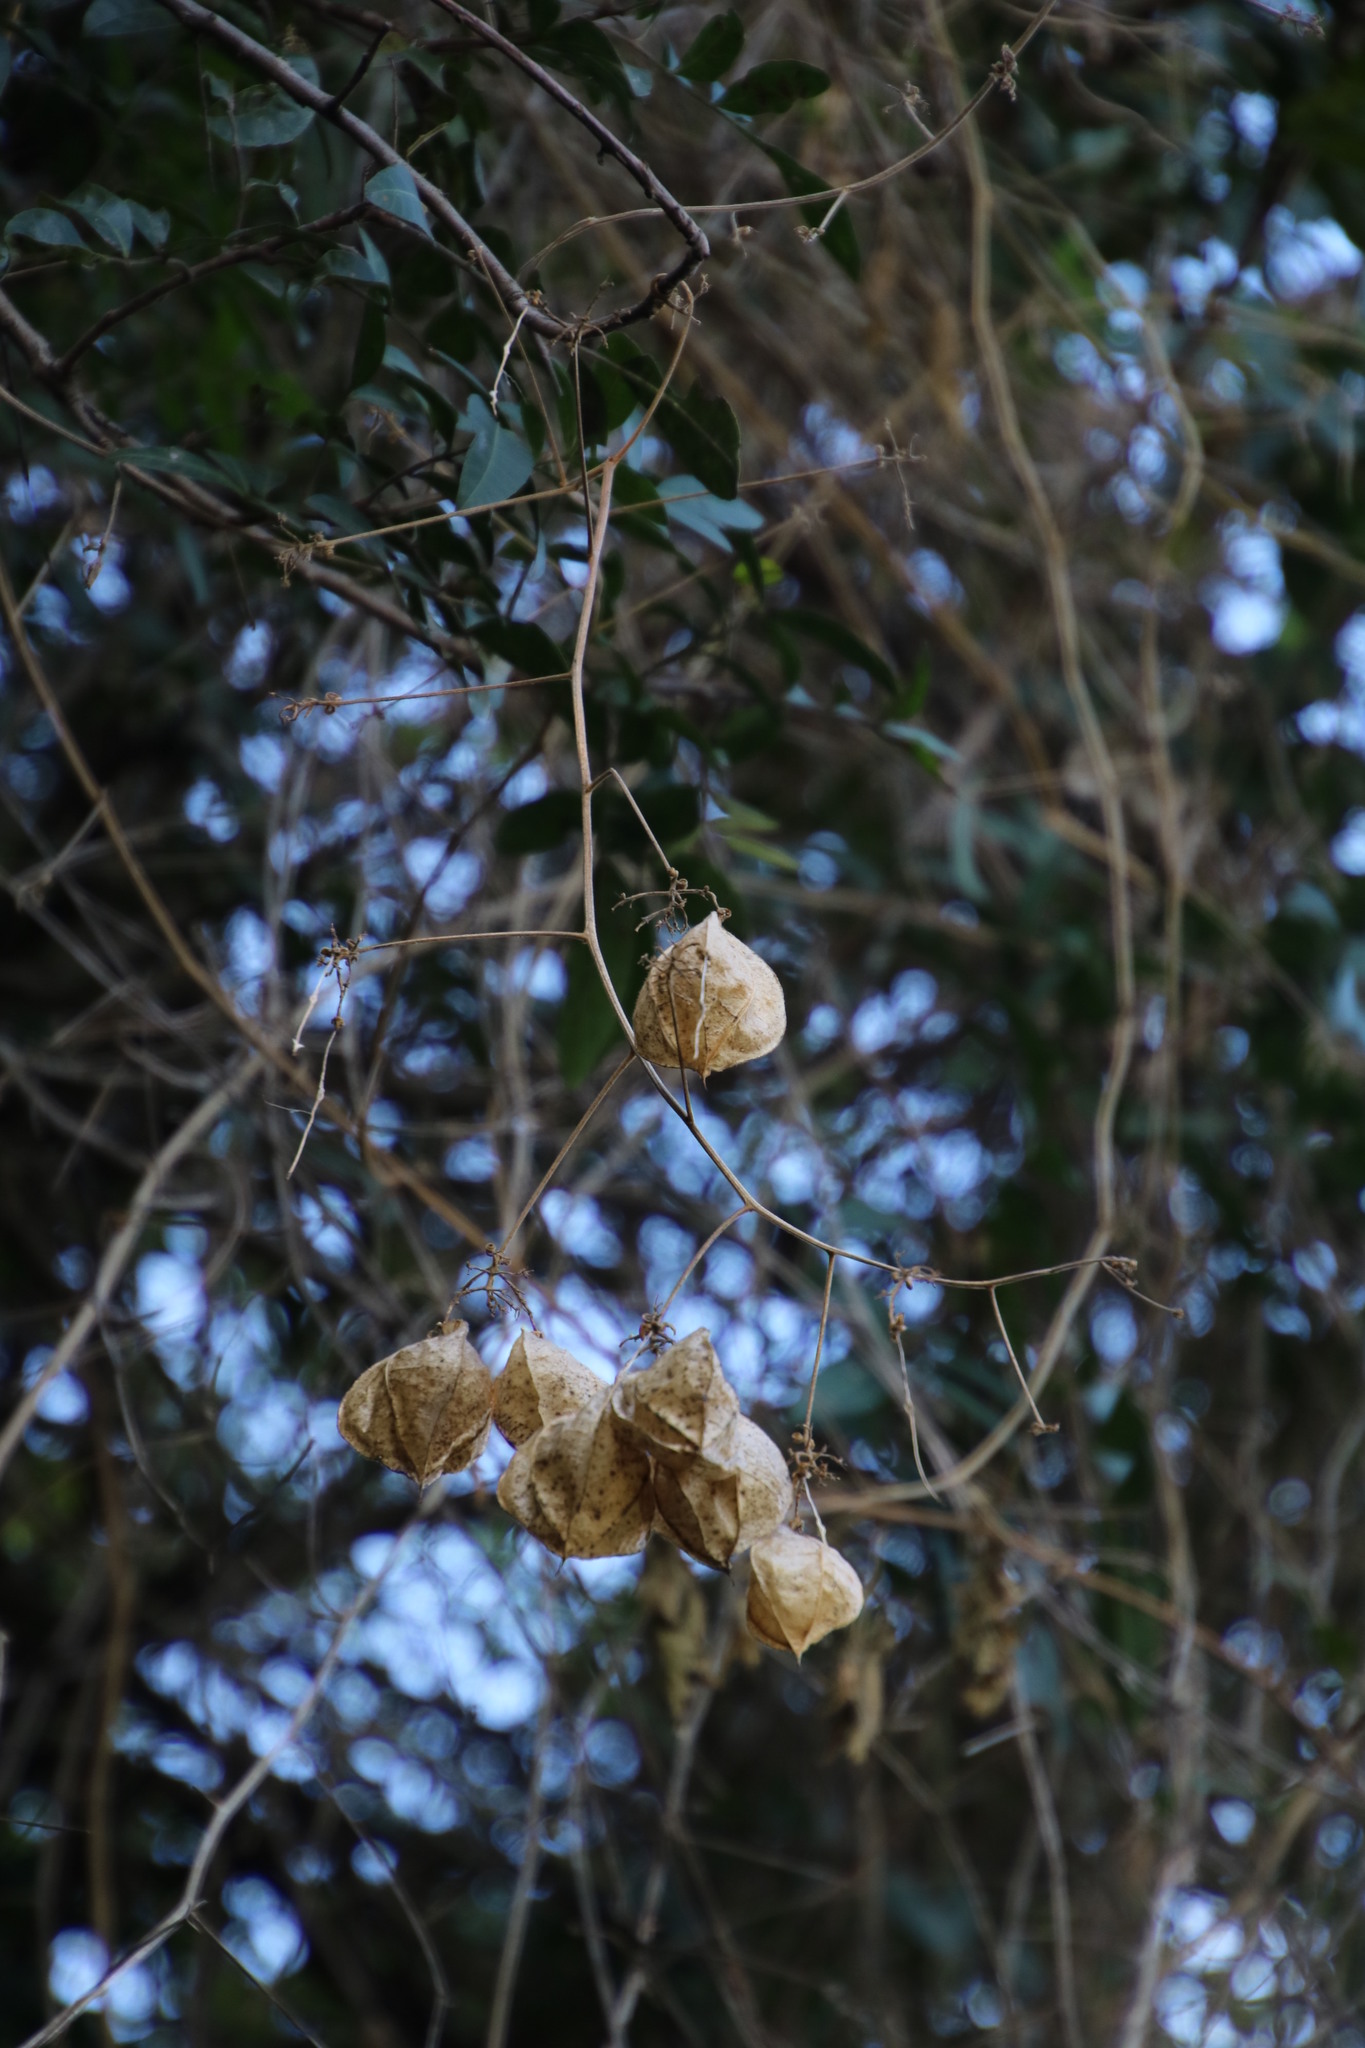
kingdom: Plantae
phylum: Tracheophyta
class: Magnoliopsida
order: Sapindales
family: Sapindaceae
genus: Cardiospermum
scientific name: Cardiospermum grandiflorum
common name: Balloon vine
